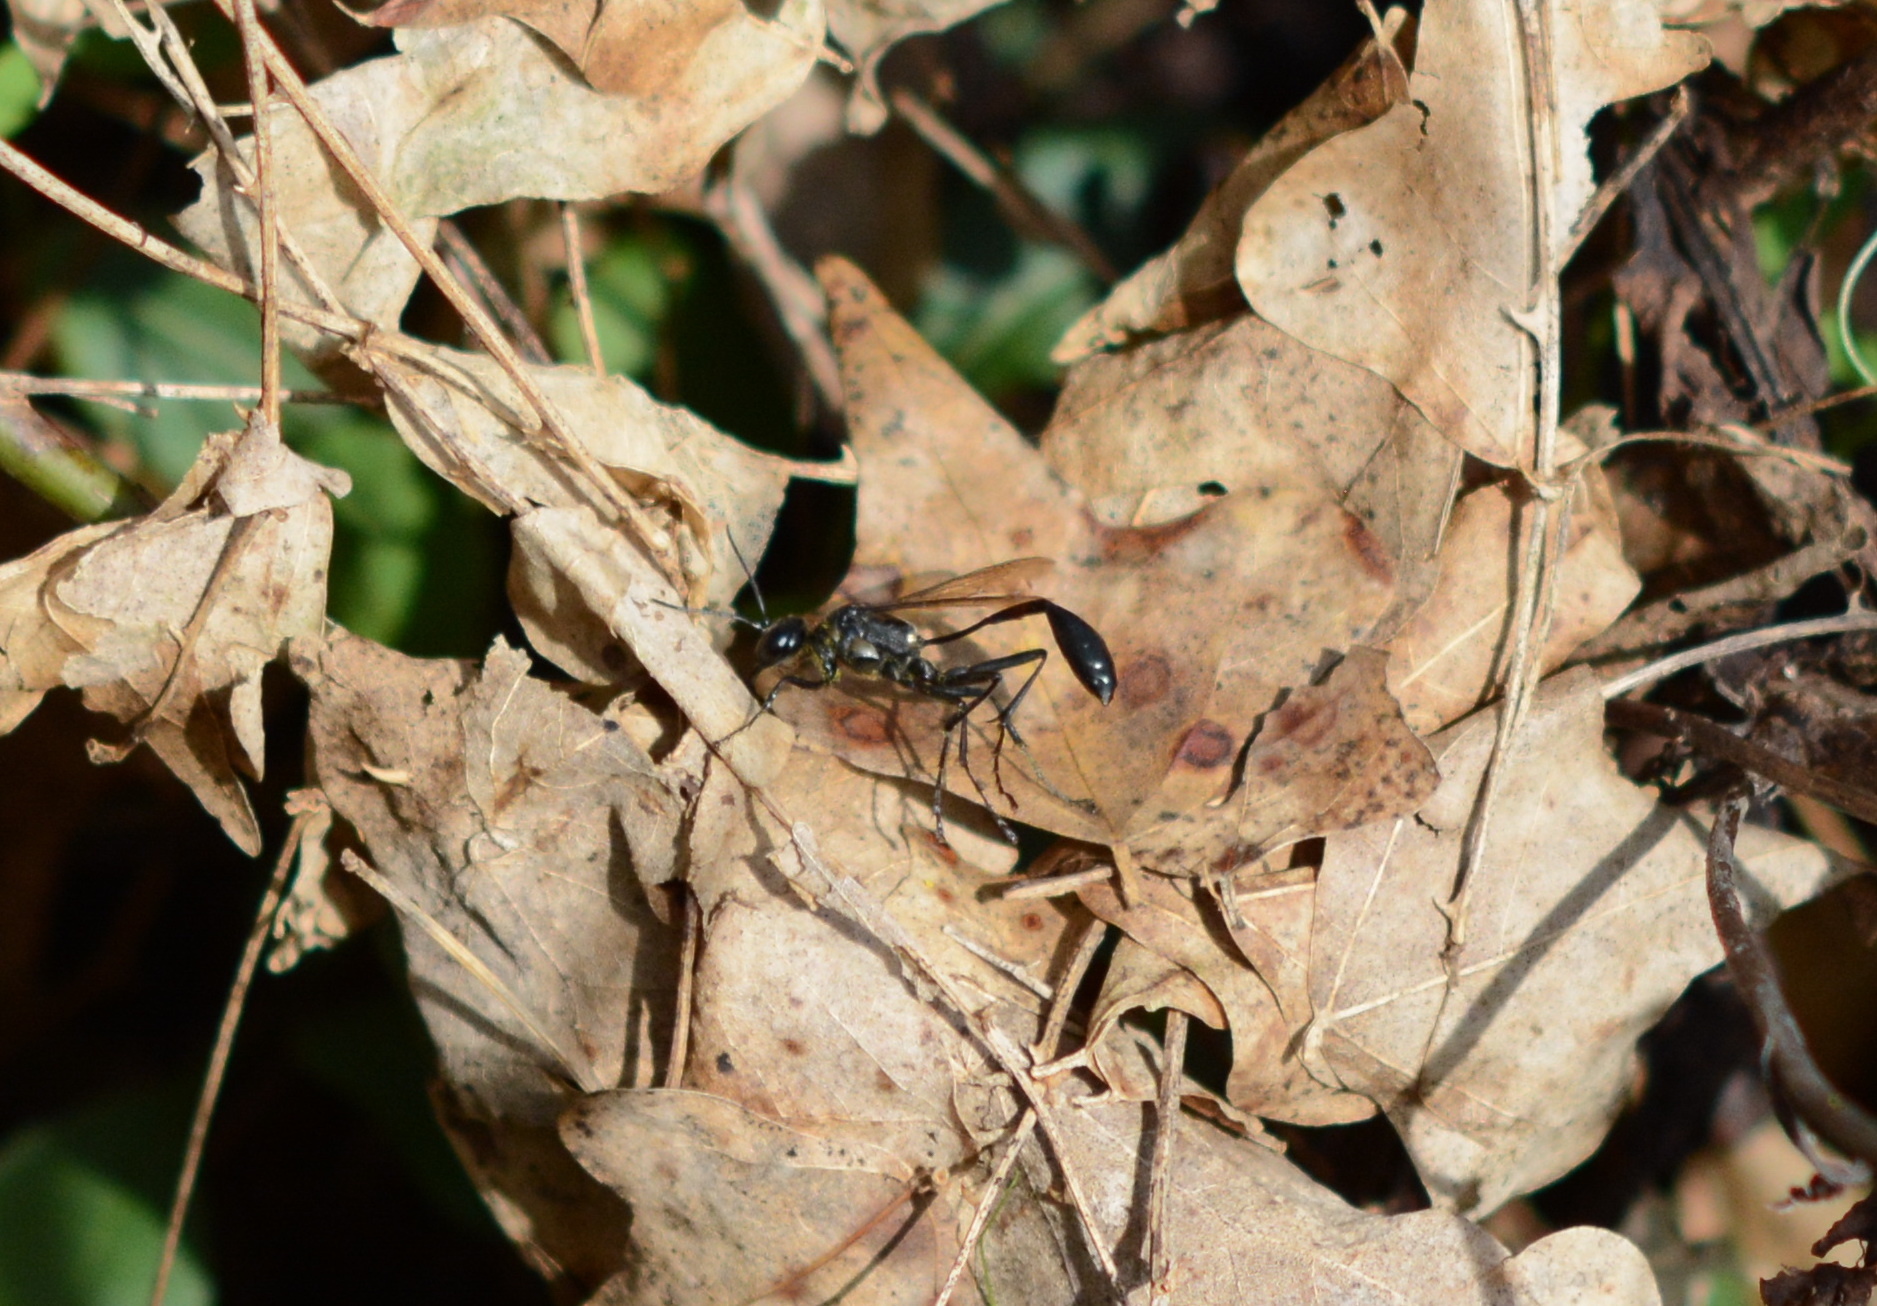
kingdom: Animalia
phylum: Arthropoda
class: Insecta
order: Hymenoptera
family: Sphecidae
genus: Eremnophila
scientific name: Eremnophila aureonotata
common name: Gold-marked thread-waisted wasp
